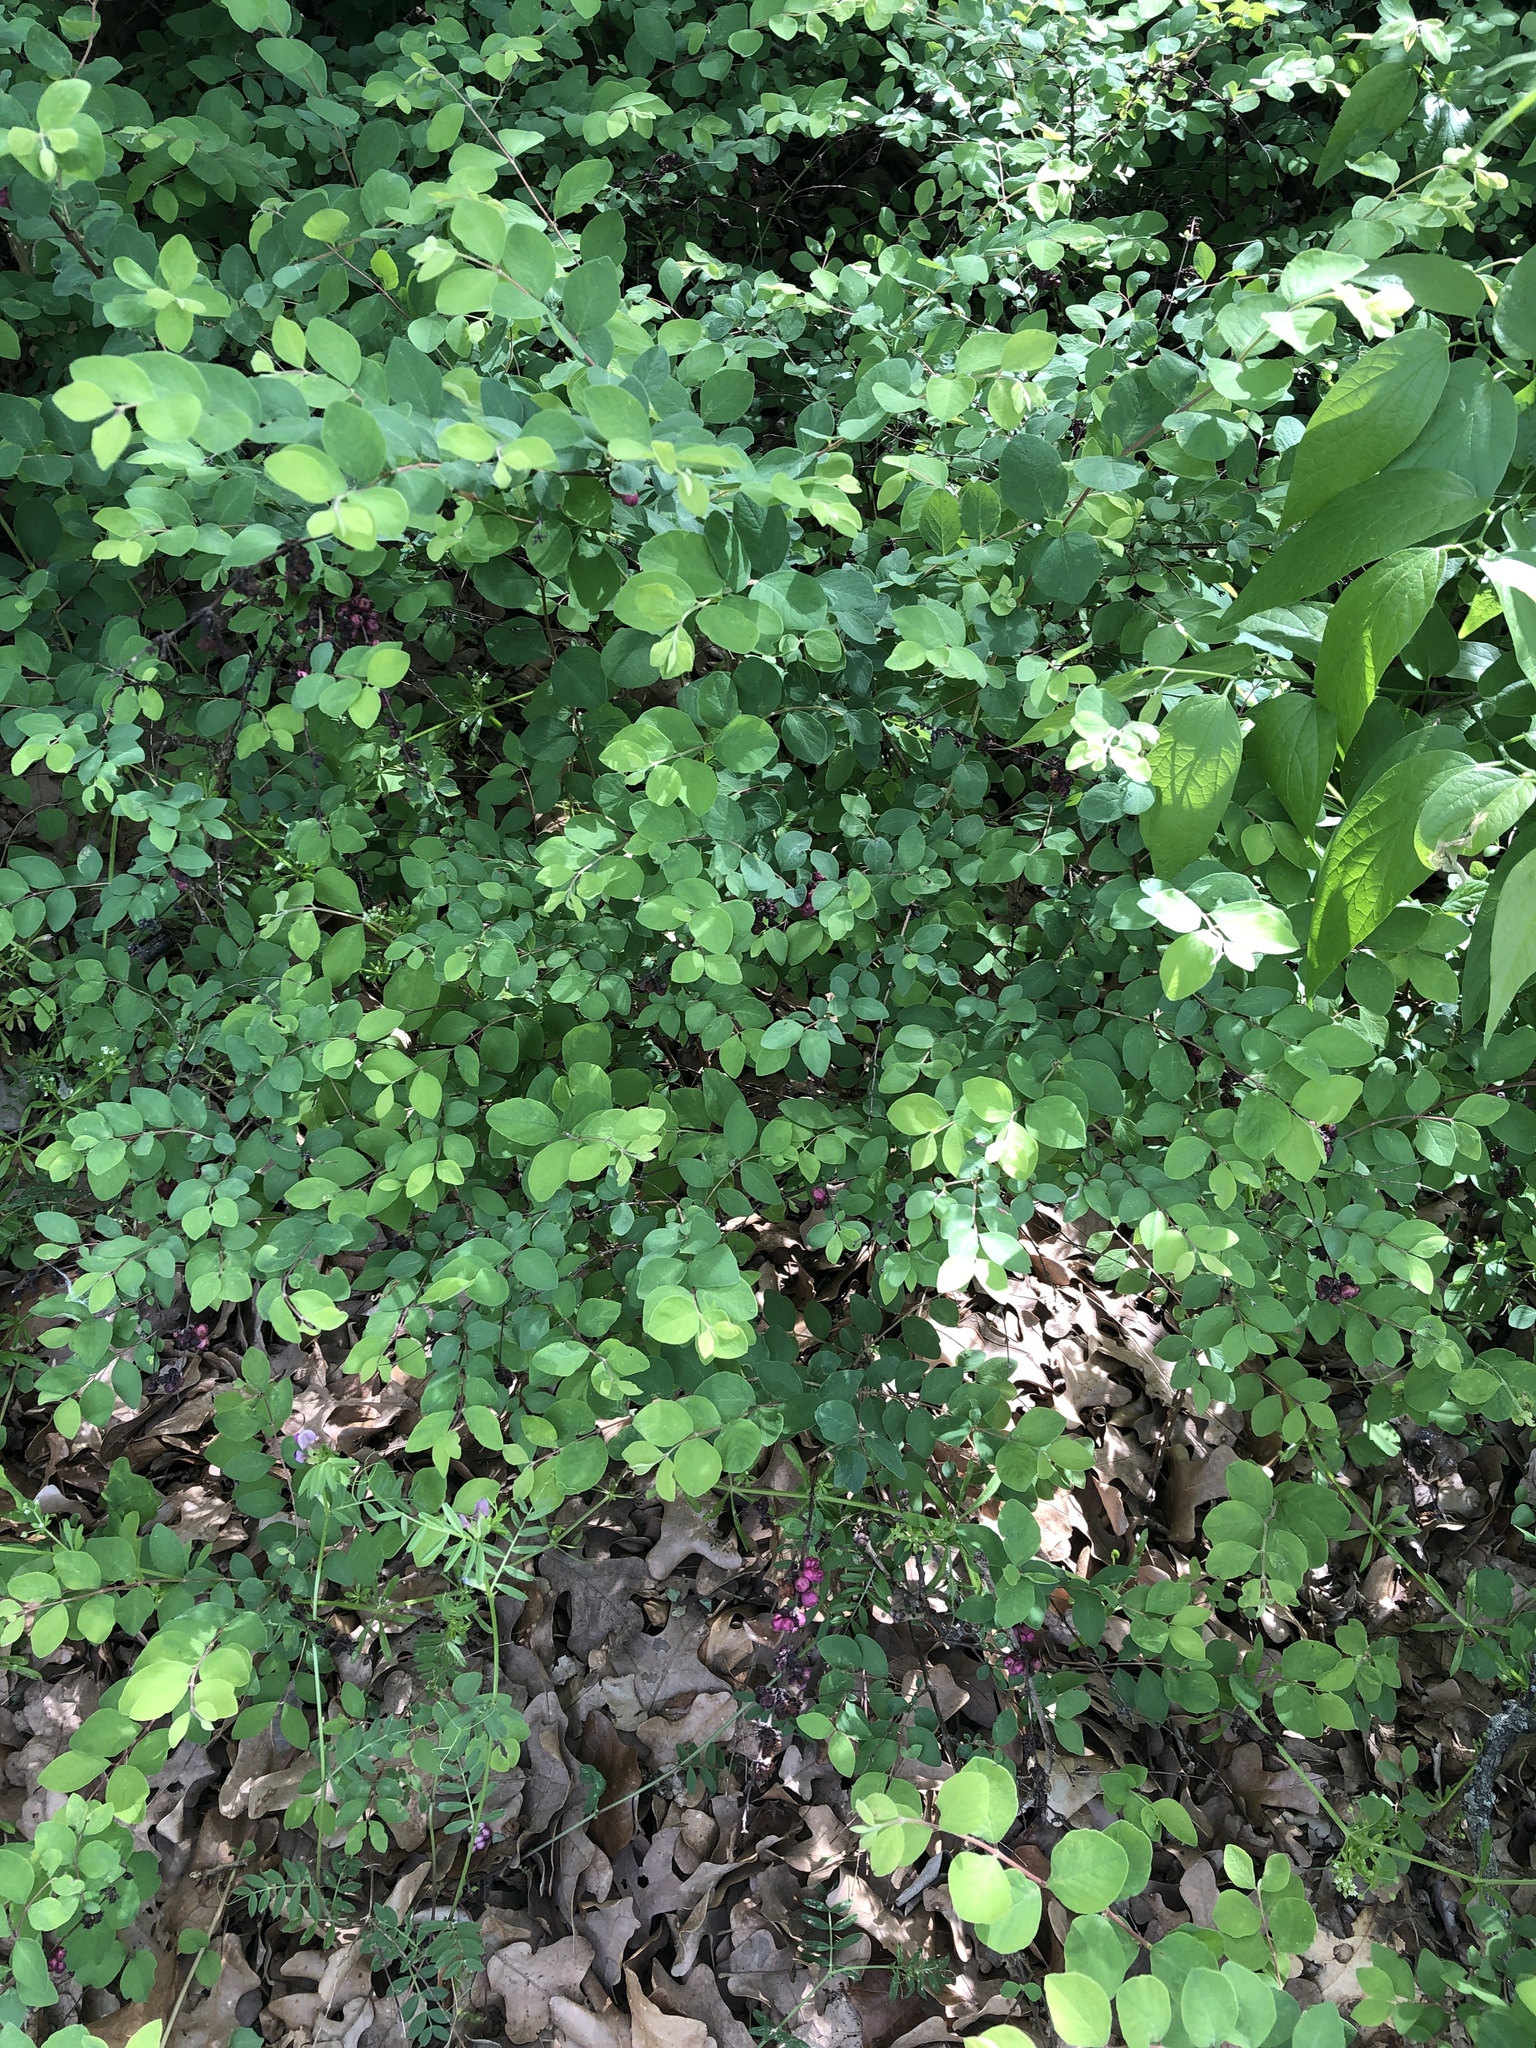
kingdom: Plantae
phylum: Tracheophyta
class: Magnoliopsida
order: Dipsacales
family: Caprifoliaceae
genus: Symphoricarpos
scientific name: Symphoricarpos orbiculatus
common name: Coralberry
